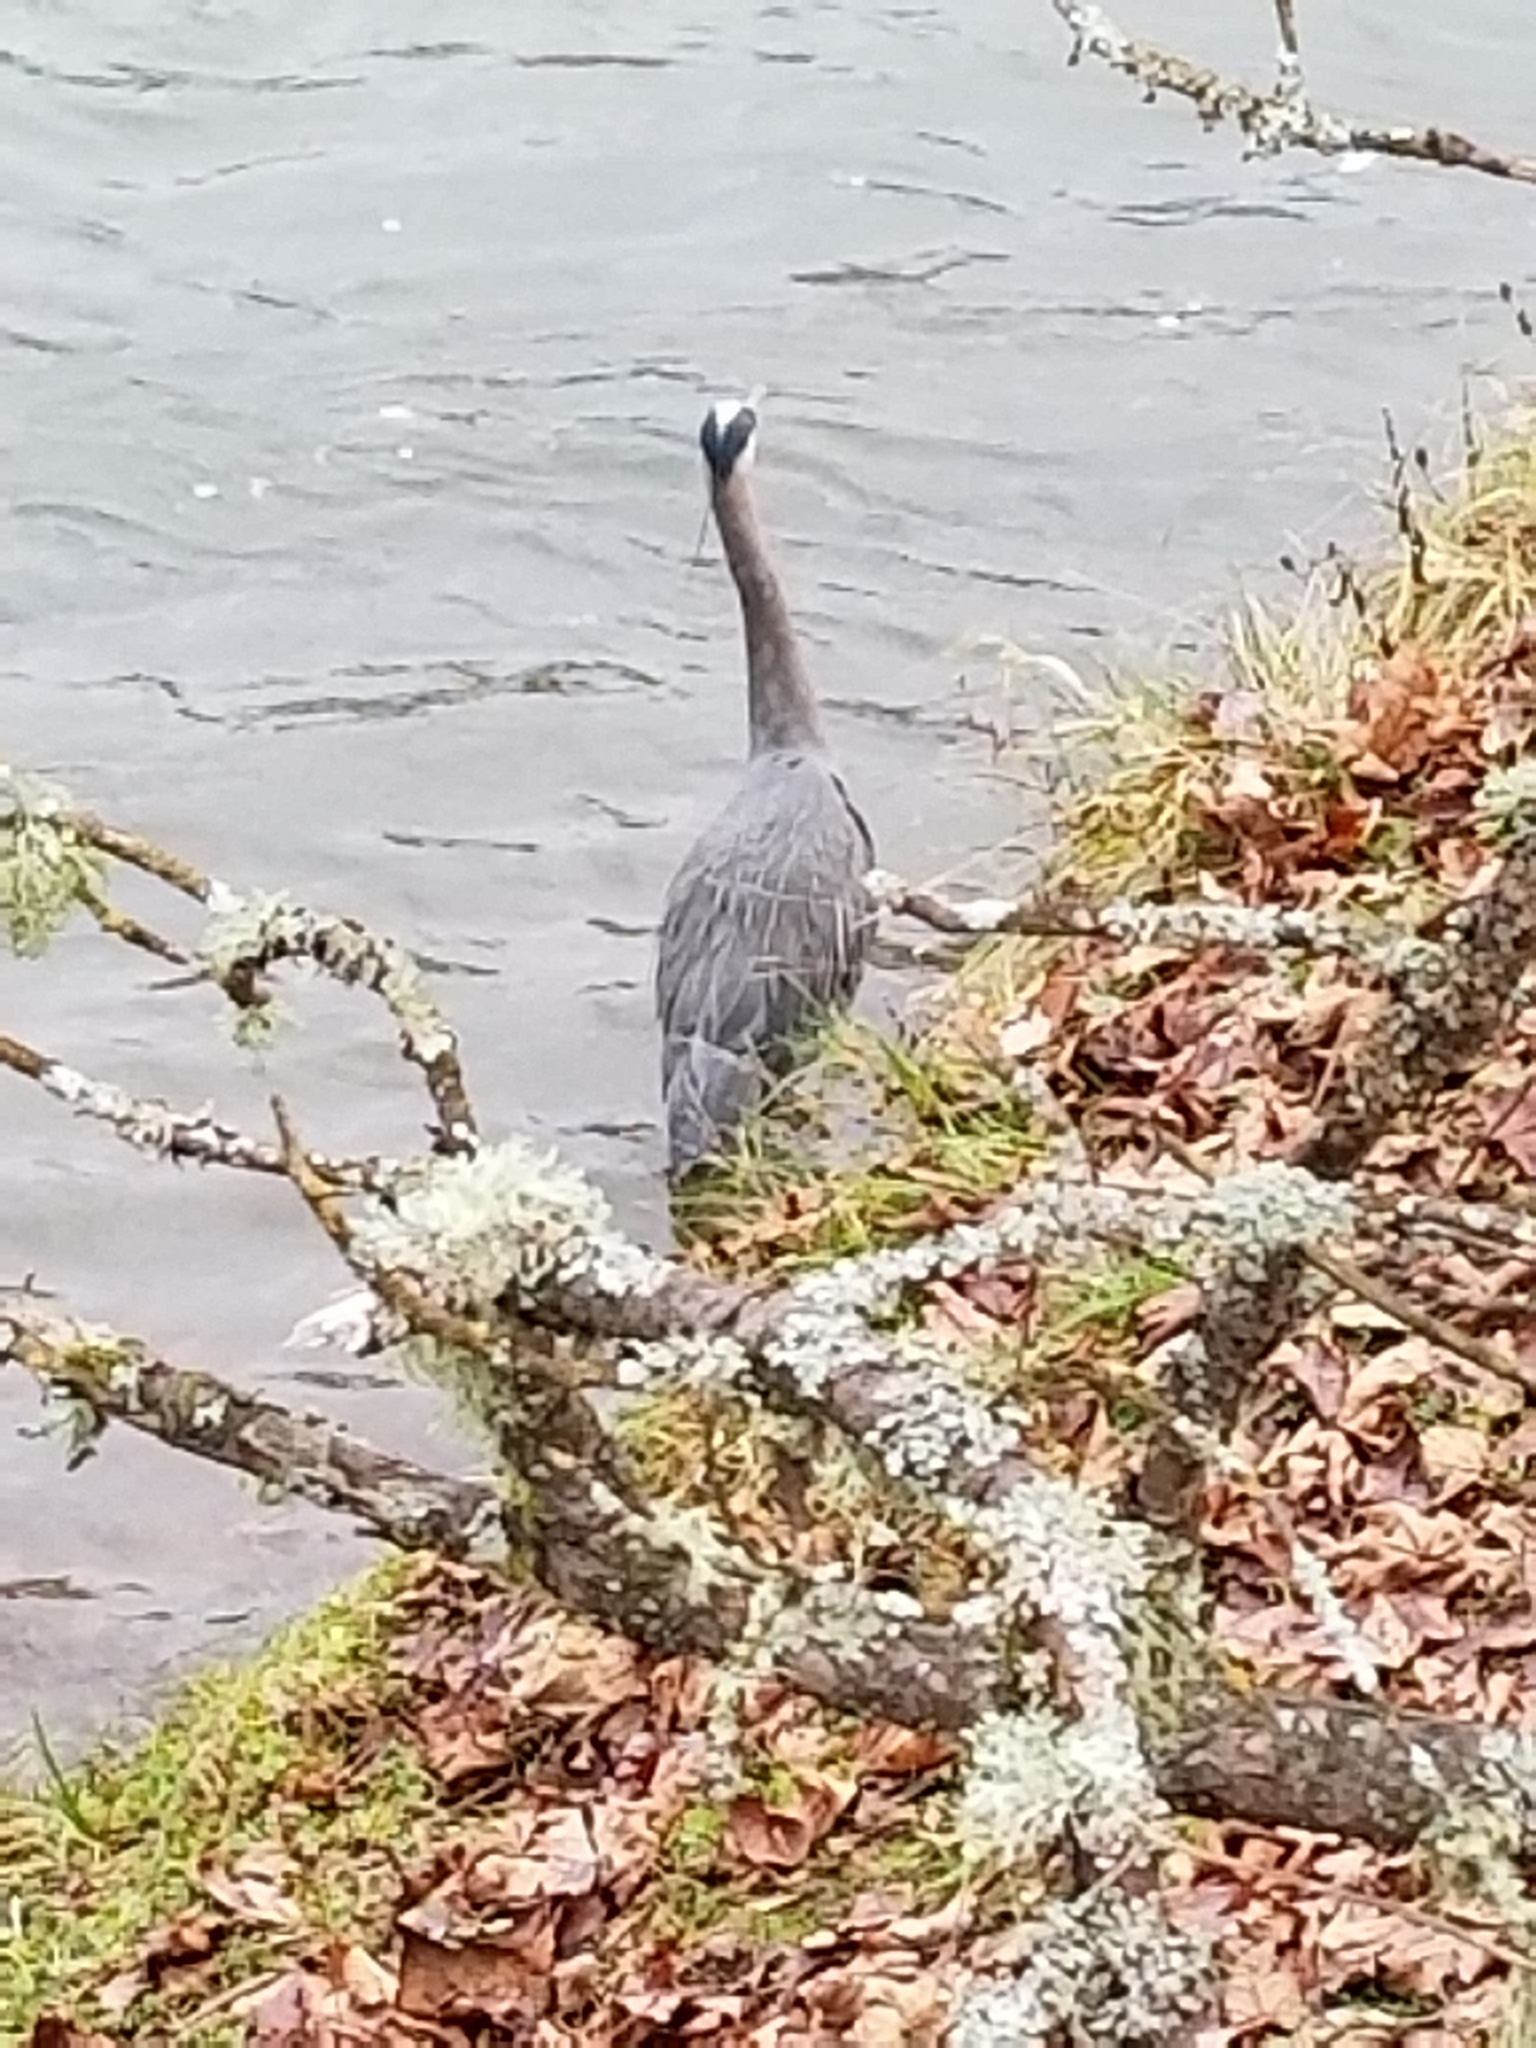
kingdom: Animalia
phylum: Chordata
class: Aves
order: Pelecaniformes
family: Ardeidae
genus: Ardea
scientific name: Ardea herodias
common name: Great blue heron
